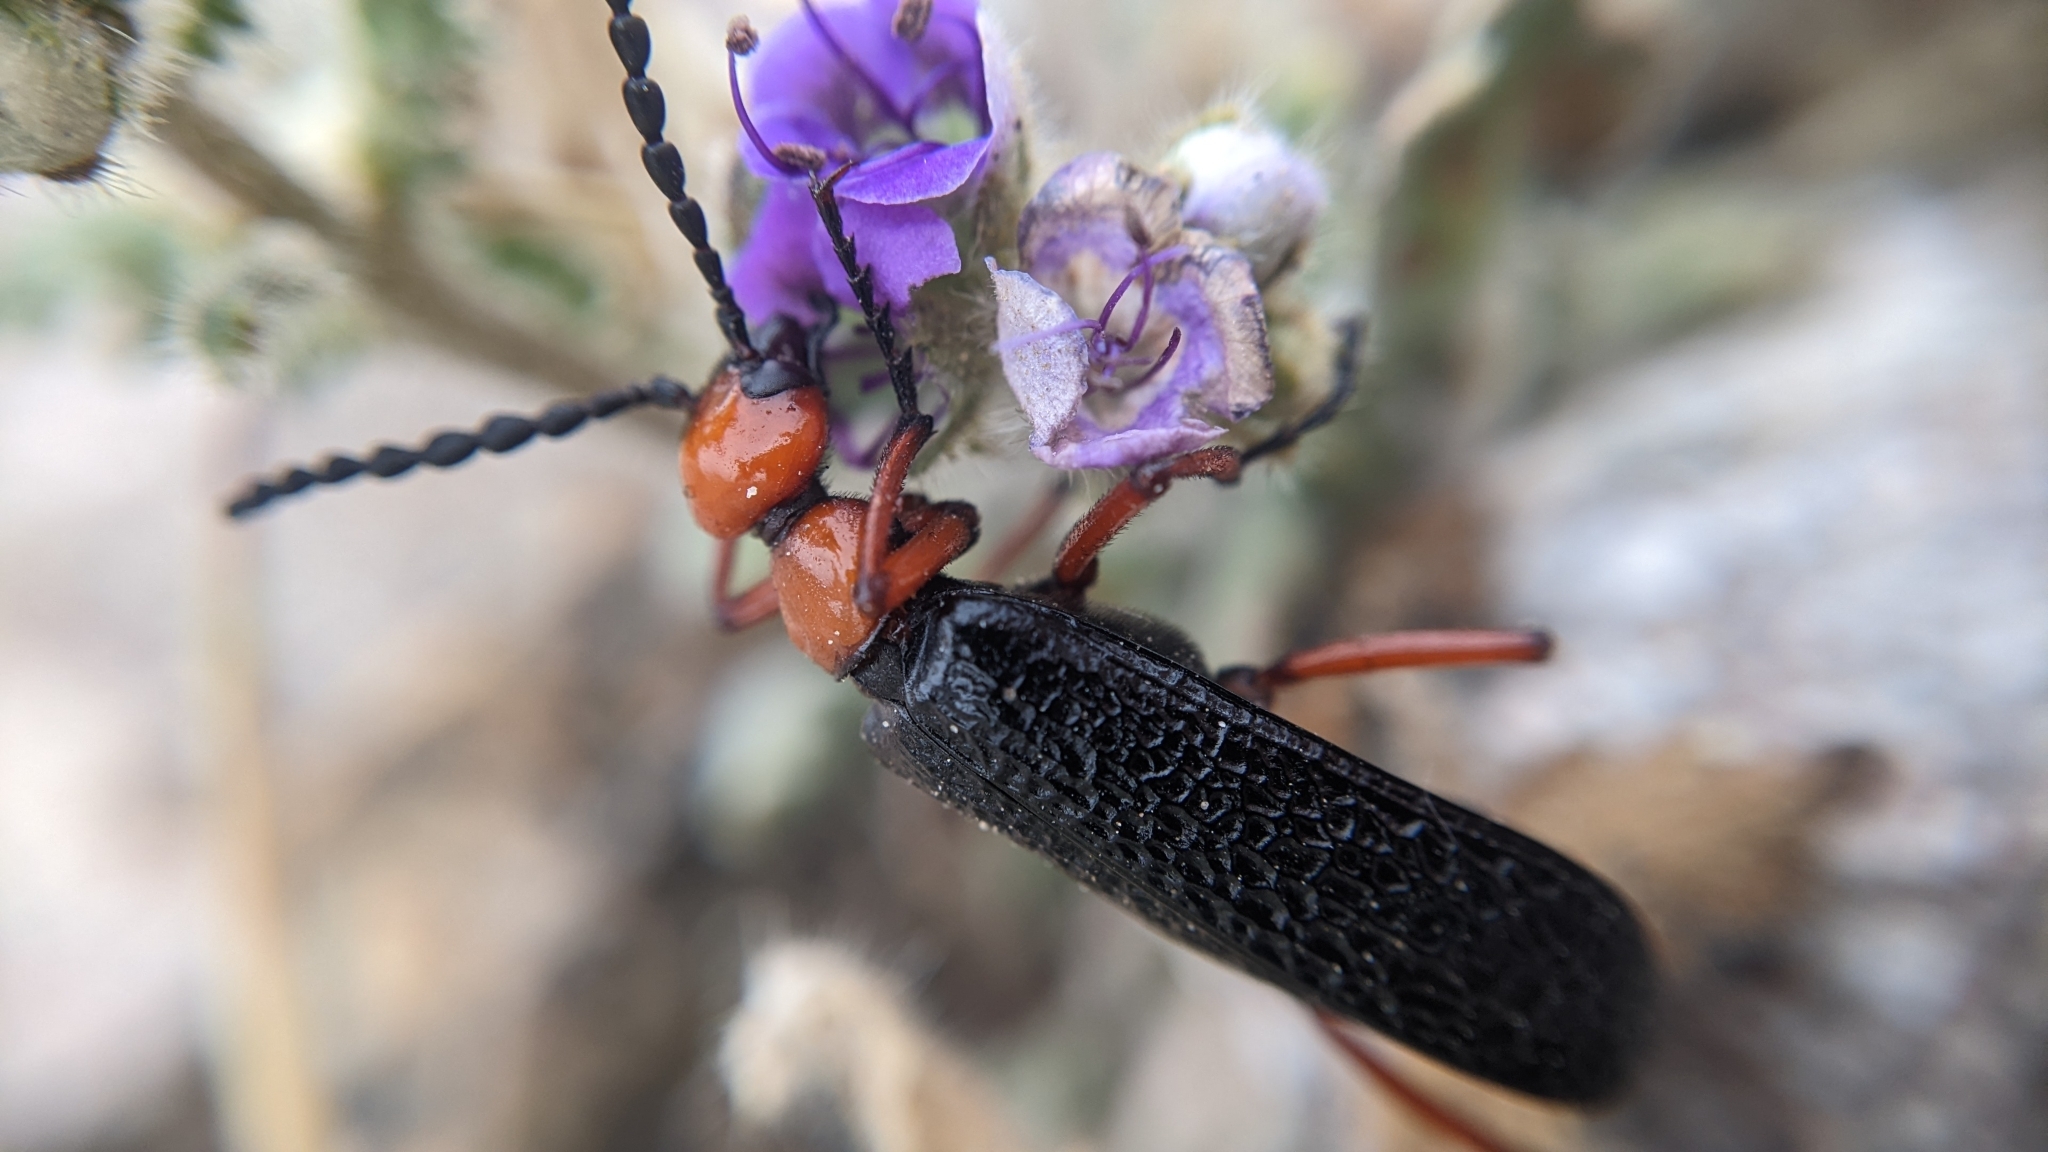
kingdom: Animalia
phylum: Arthropoda
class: Insecta
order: Coleoptera
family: Meloidae
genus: Lytta
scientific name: Lytta magister
